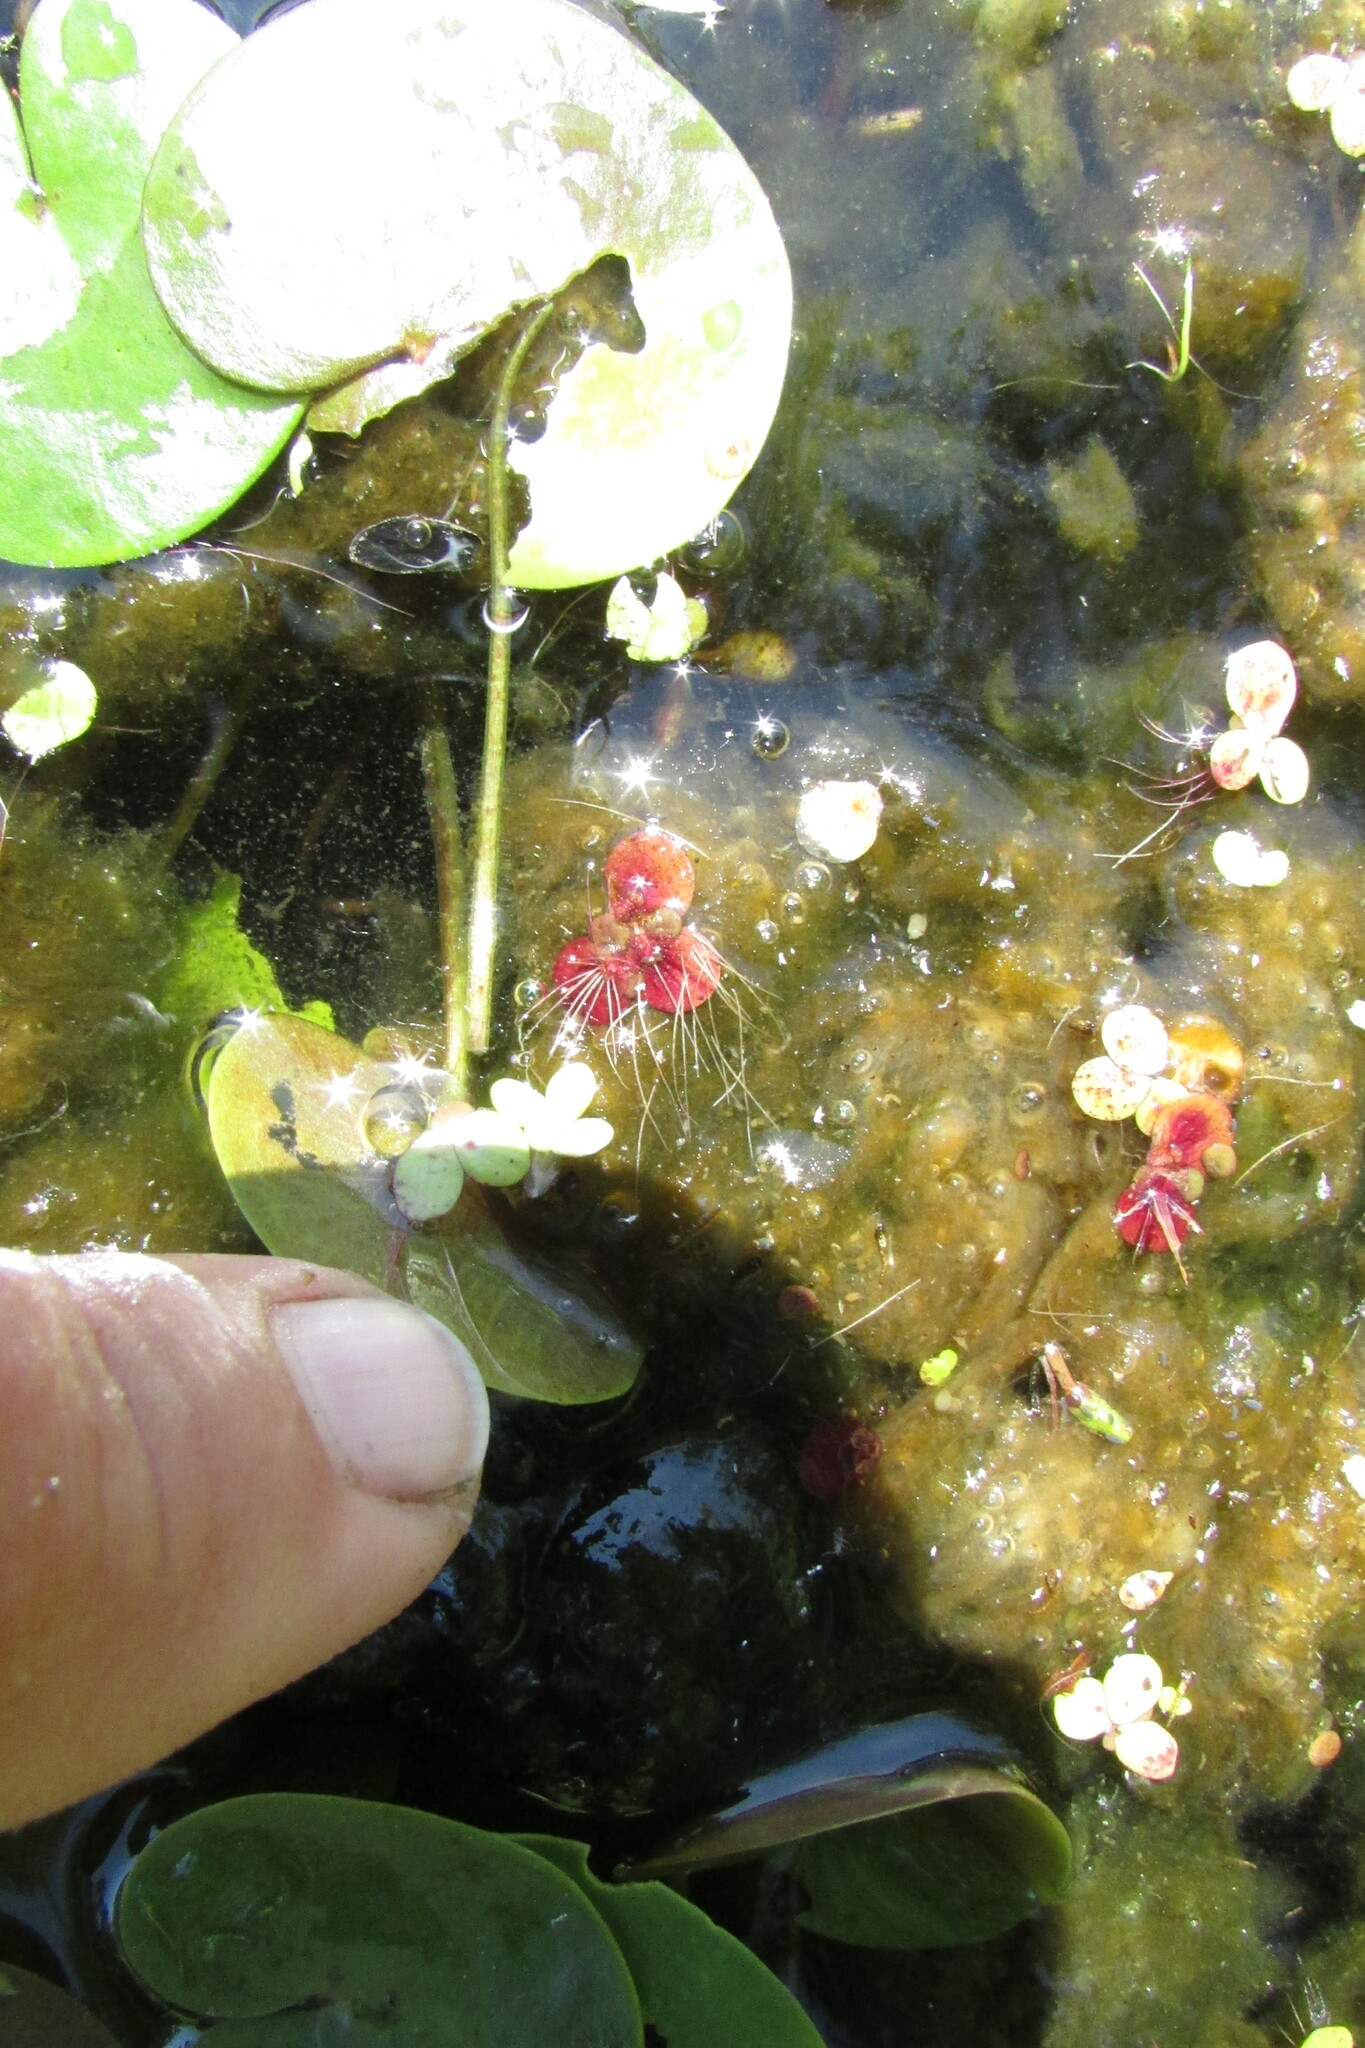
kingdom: Plantae
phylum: Tracheophyta
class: Liliopsida
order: Alismatales
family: Araceae
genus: Spirodela
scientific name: Spirodela polyrhiza
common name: Great duckweed
